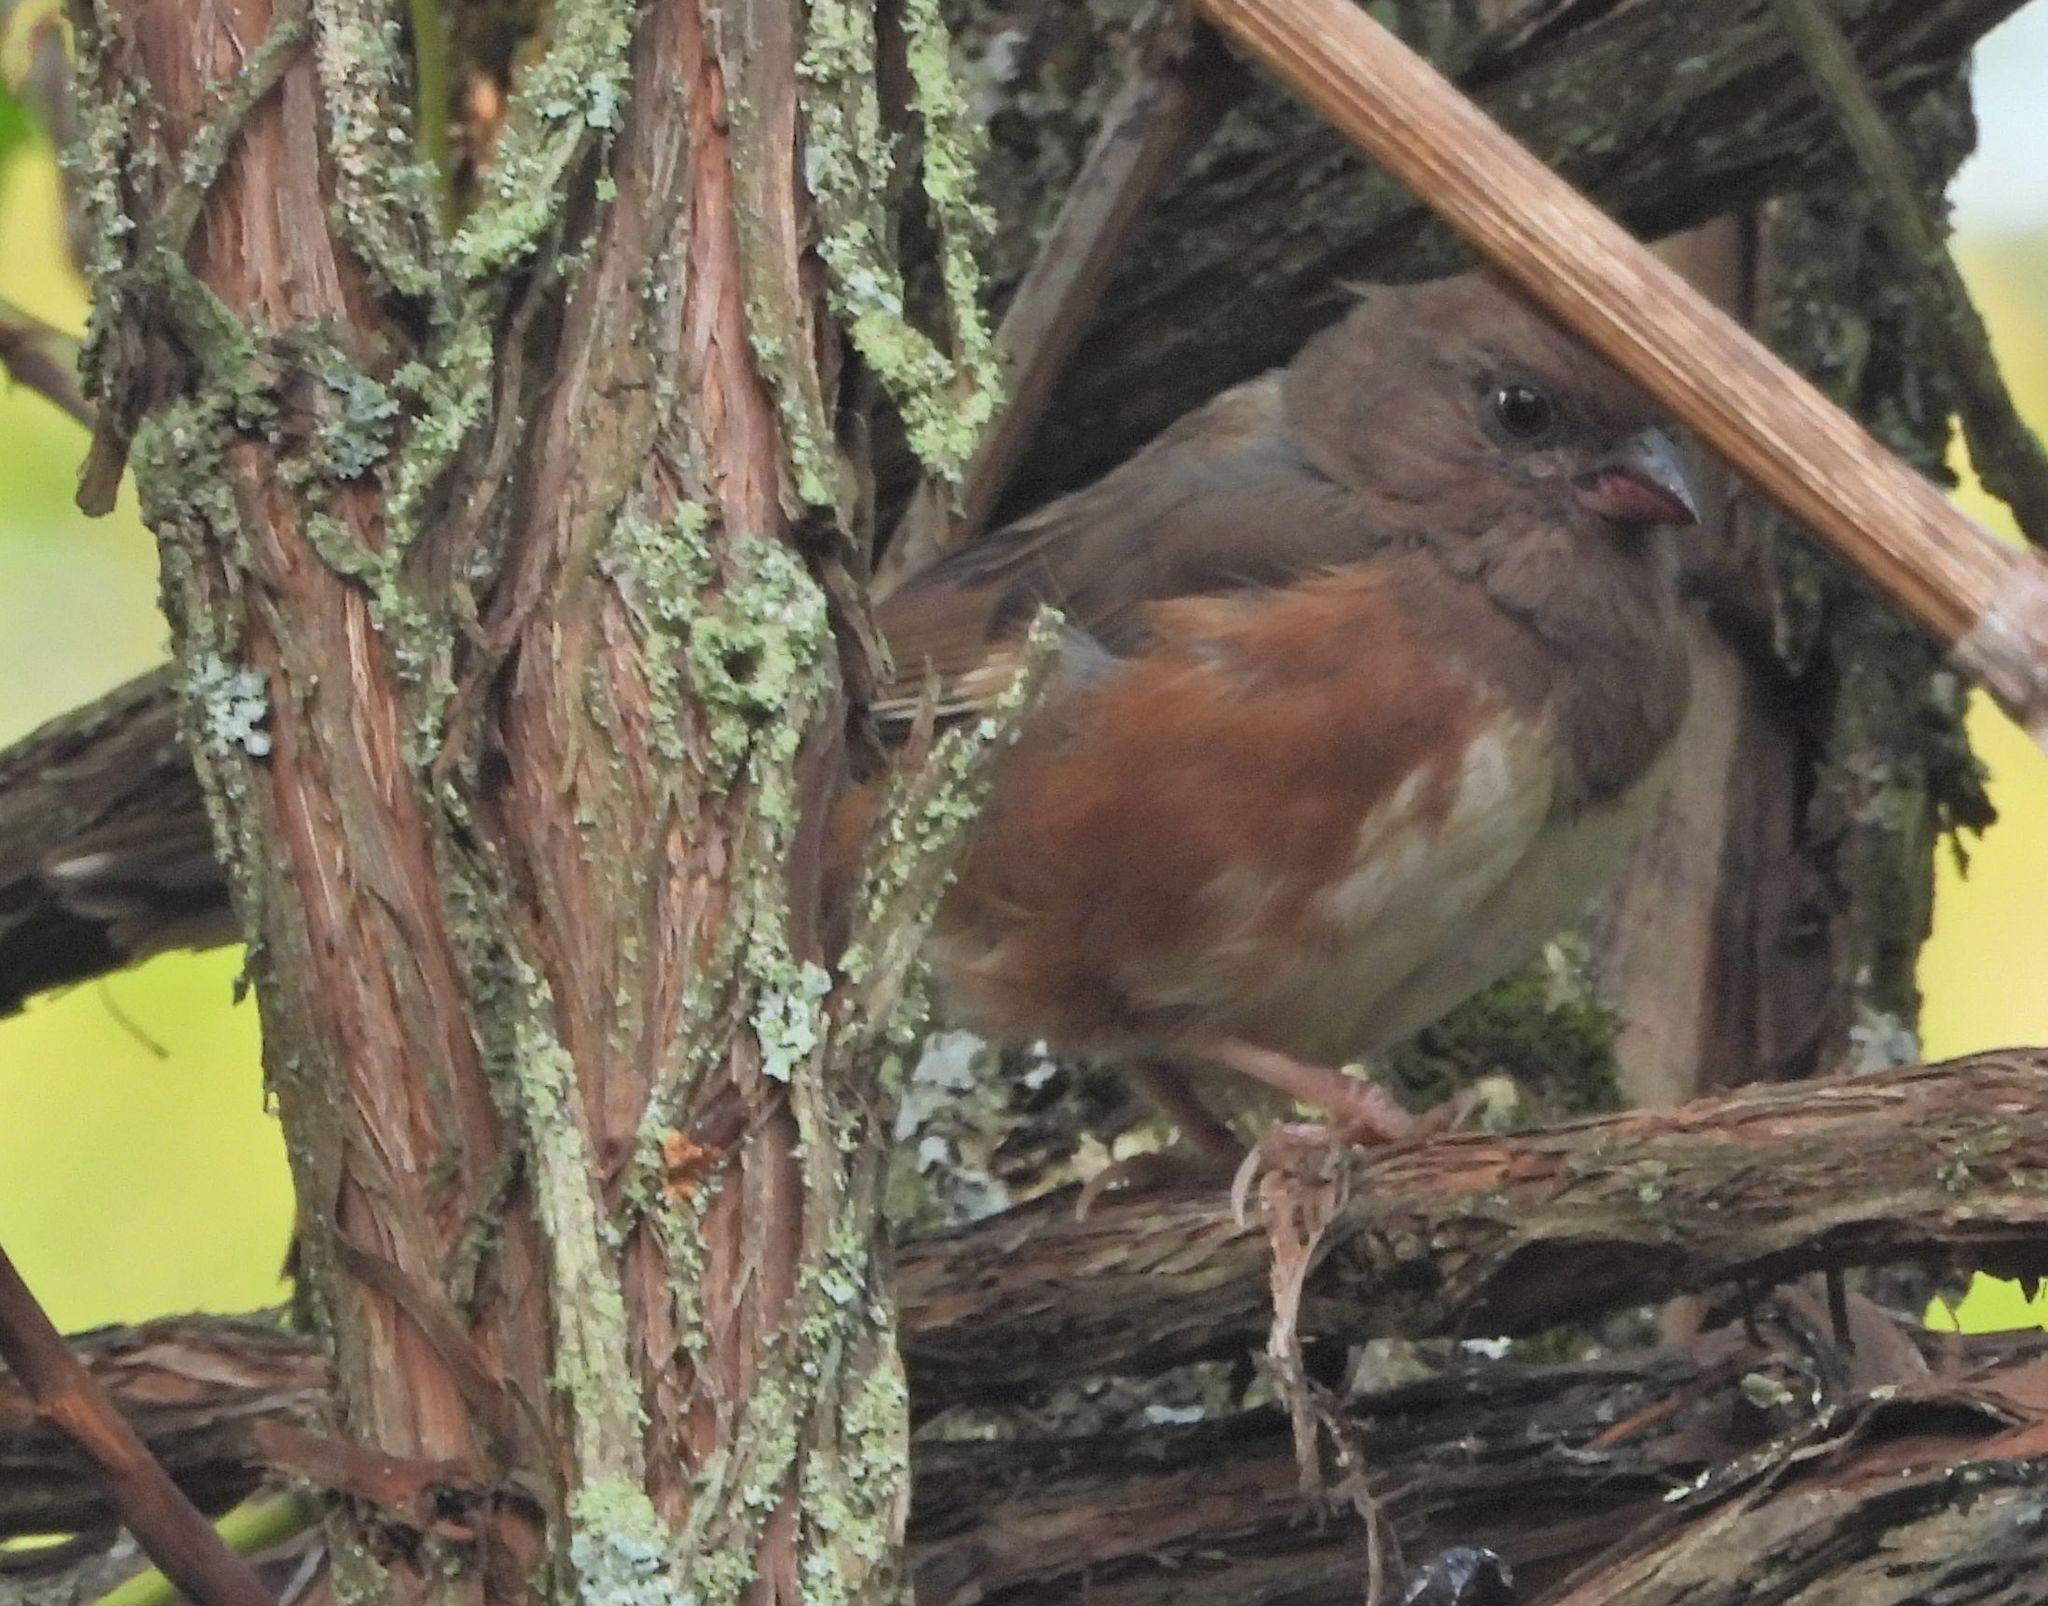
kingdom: Animalia
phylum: Chordata
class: Aves
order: Passeriformes
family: Passerellidae
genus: Pipilo
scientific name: Pipilo erythrophthalmus
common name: Eastern towhee
